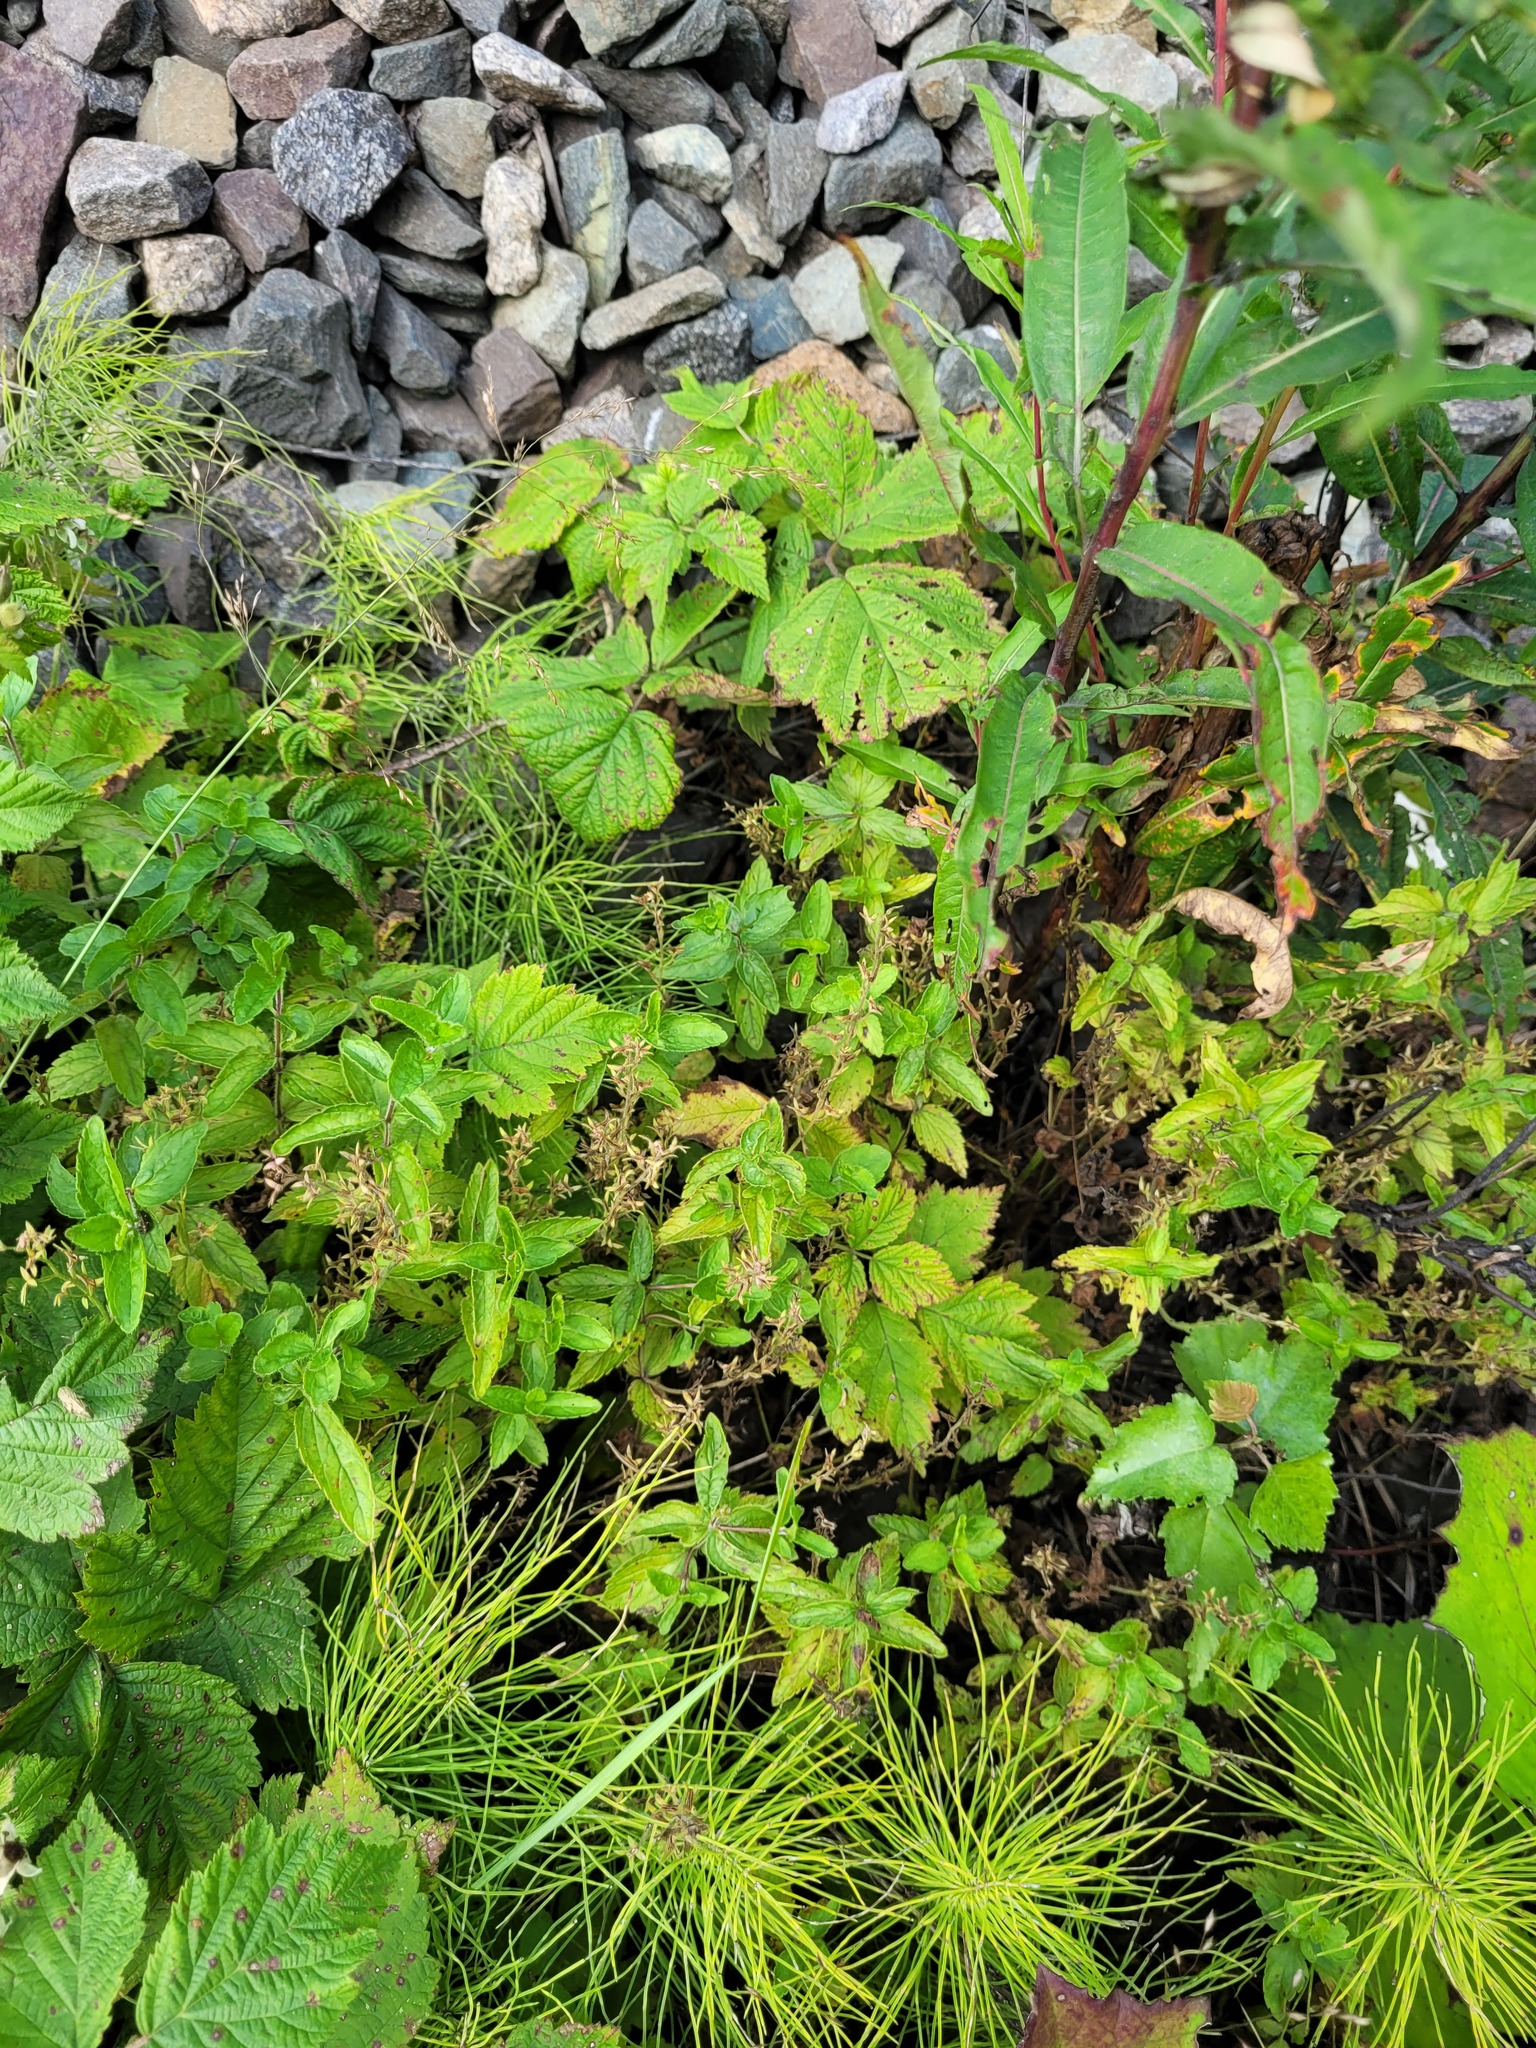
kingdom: Plantae
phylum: Tracheophyta
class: Magnoliopsida
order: Lamiales
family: Plantaginaceae
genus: Veronica
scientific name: Veronica chamaedrys
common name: Germander speedwell
